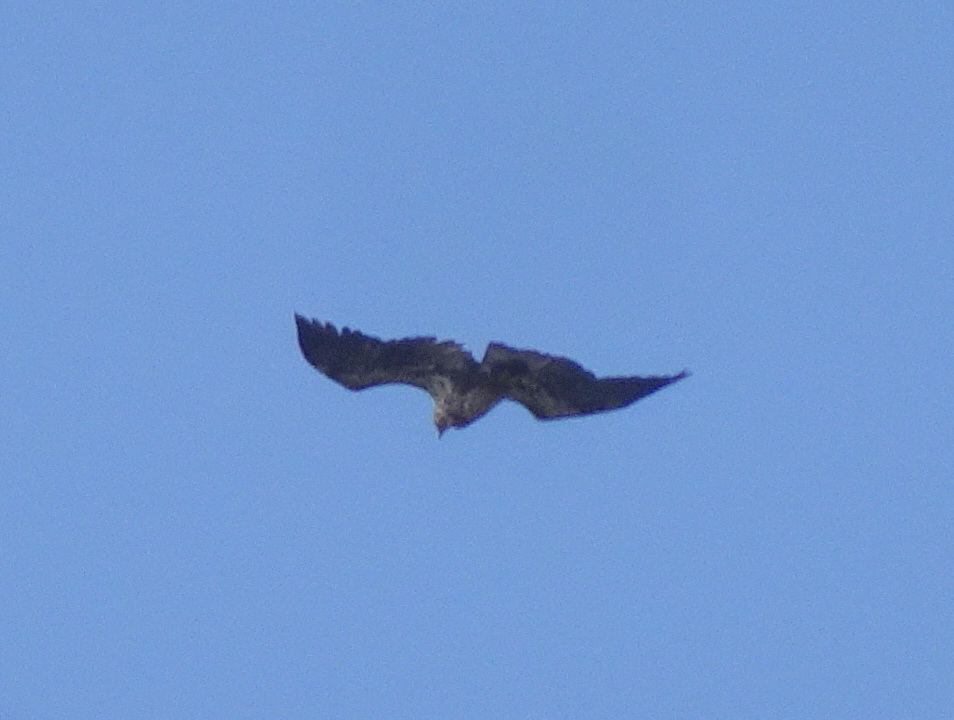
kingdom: Animalia
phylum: Chordata
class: Aves
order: Accipitriformes
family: Accipitridae
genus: Haliaeetus
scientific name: Haliaeetus leucocephalus
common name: Bald eagle
